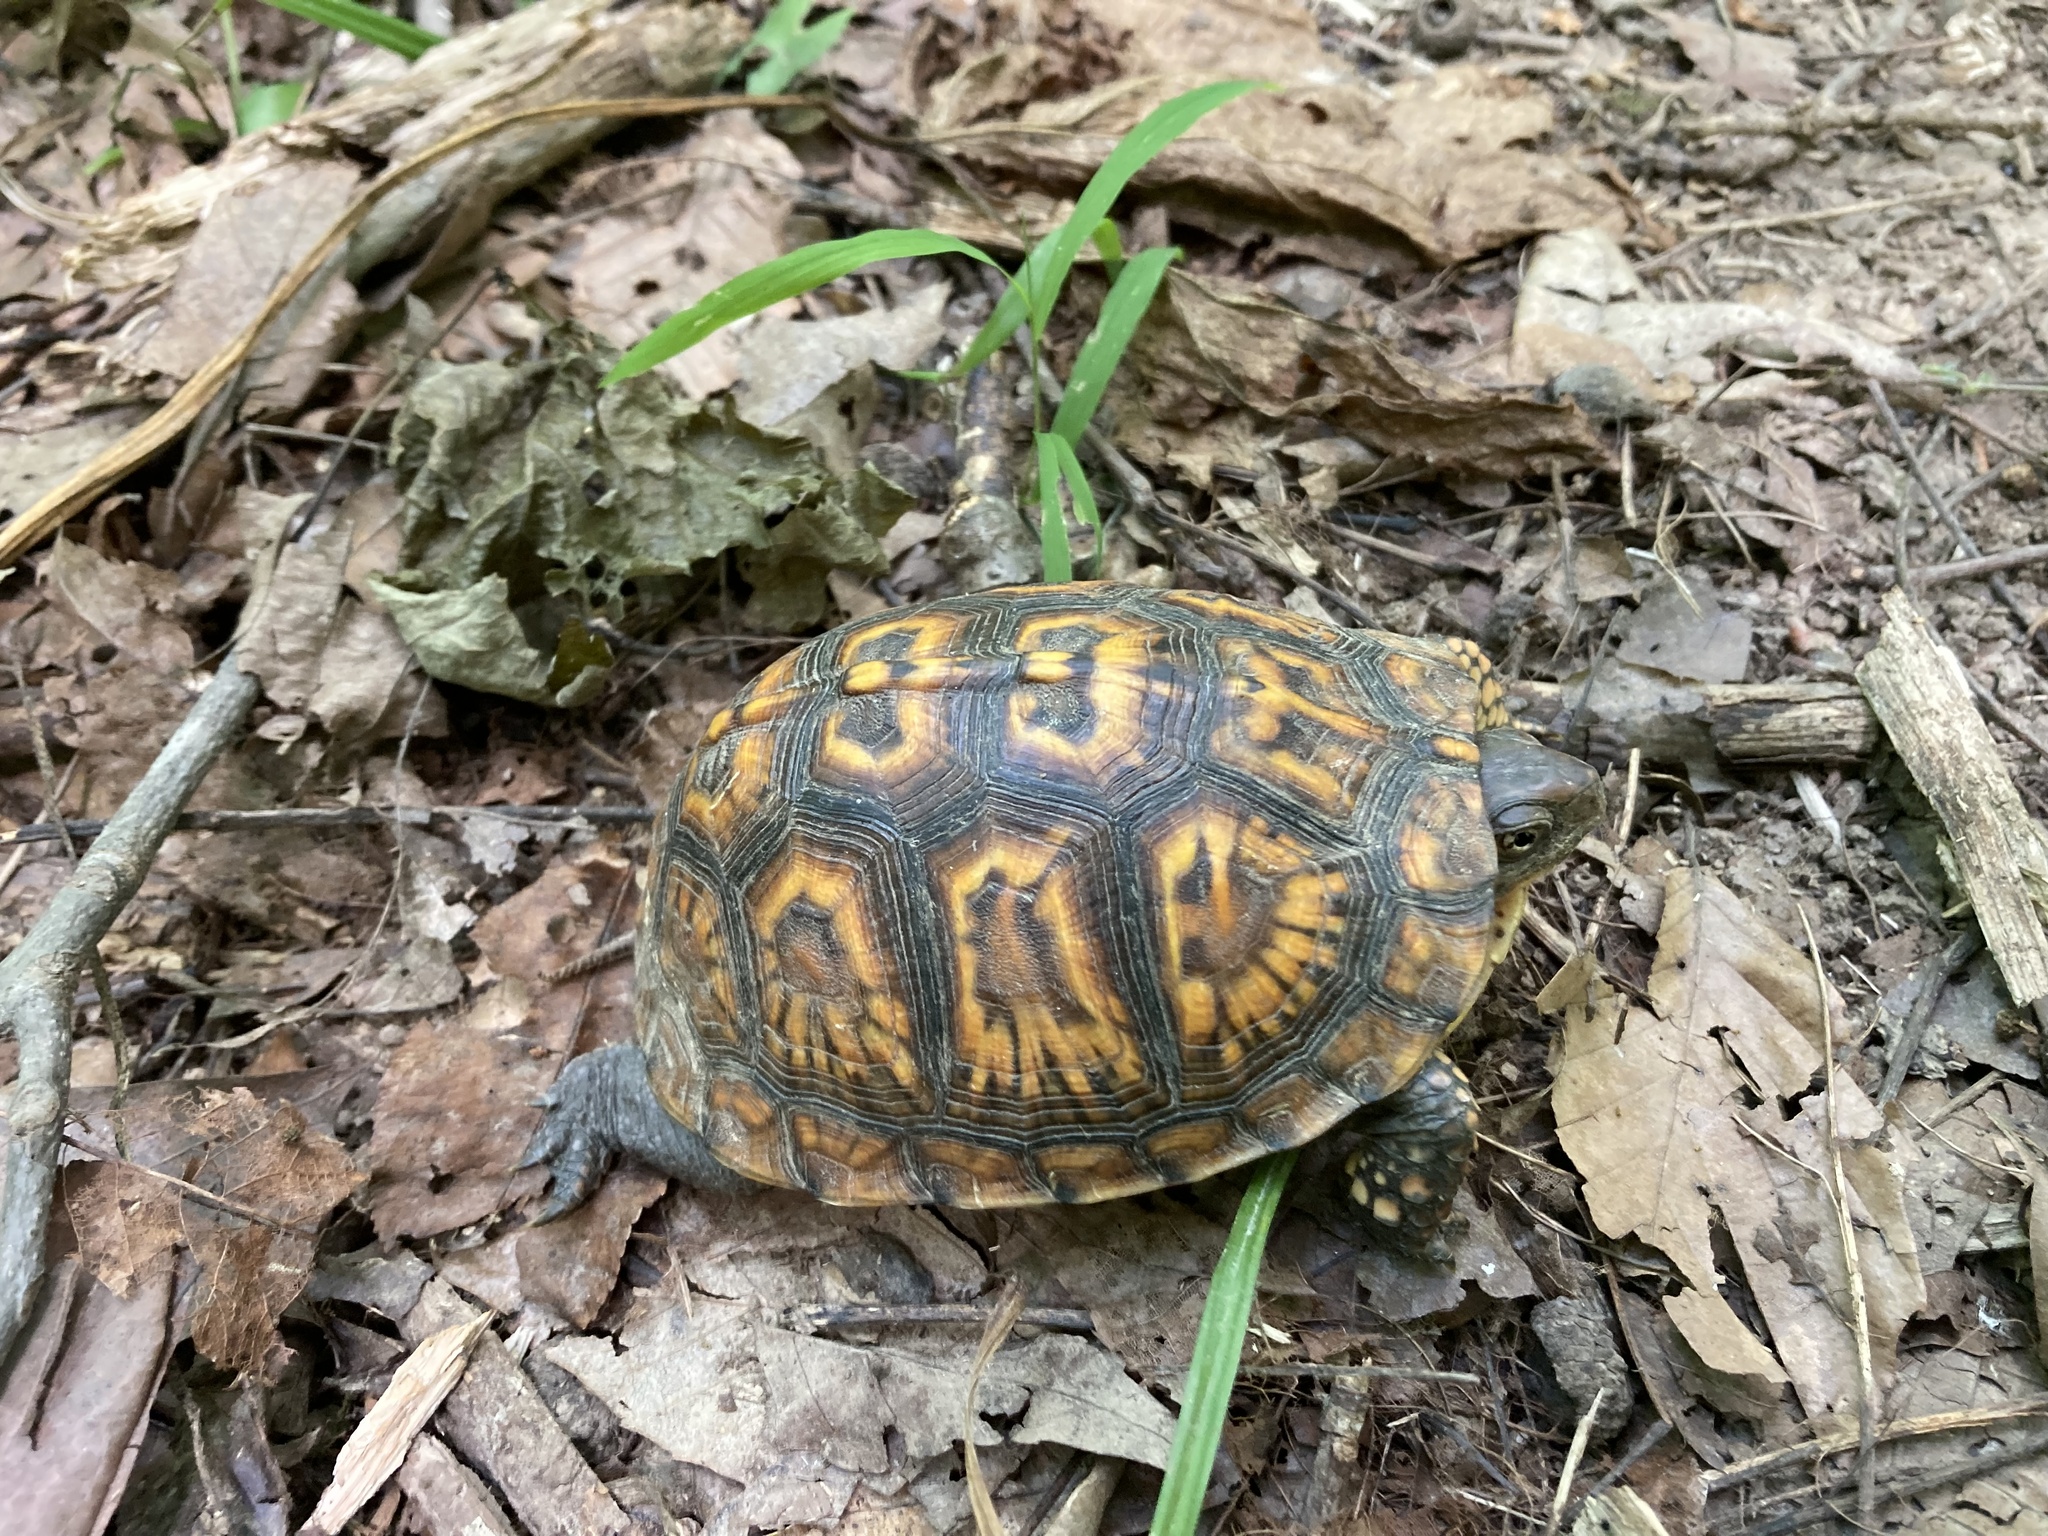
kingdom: Animalia
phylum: Chordata
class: Testudines
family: Emydidae
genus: Terrapene
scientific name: Terrapene carolina
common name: Common box turtle
